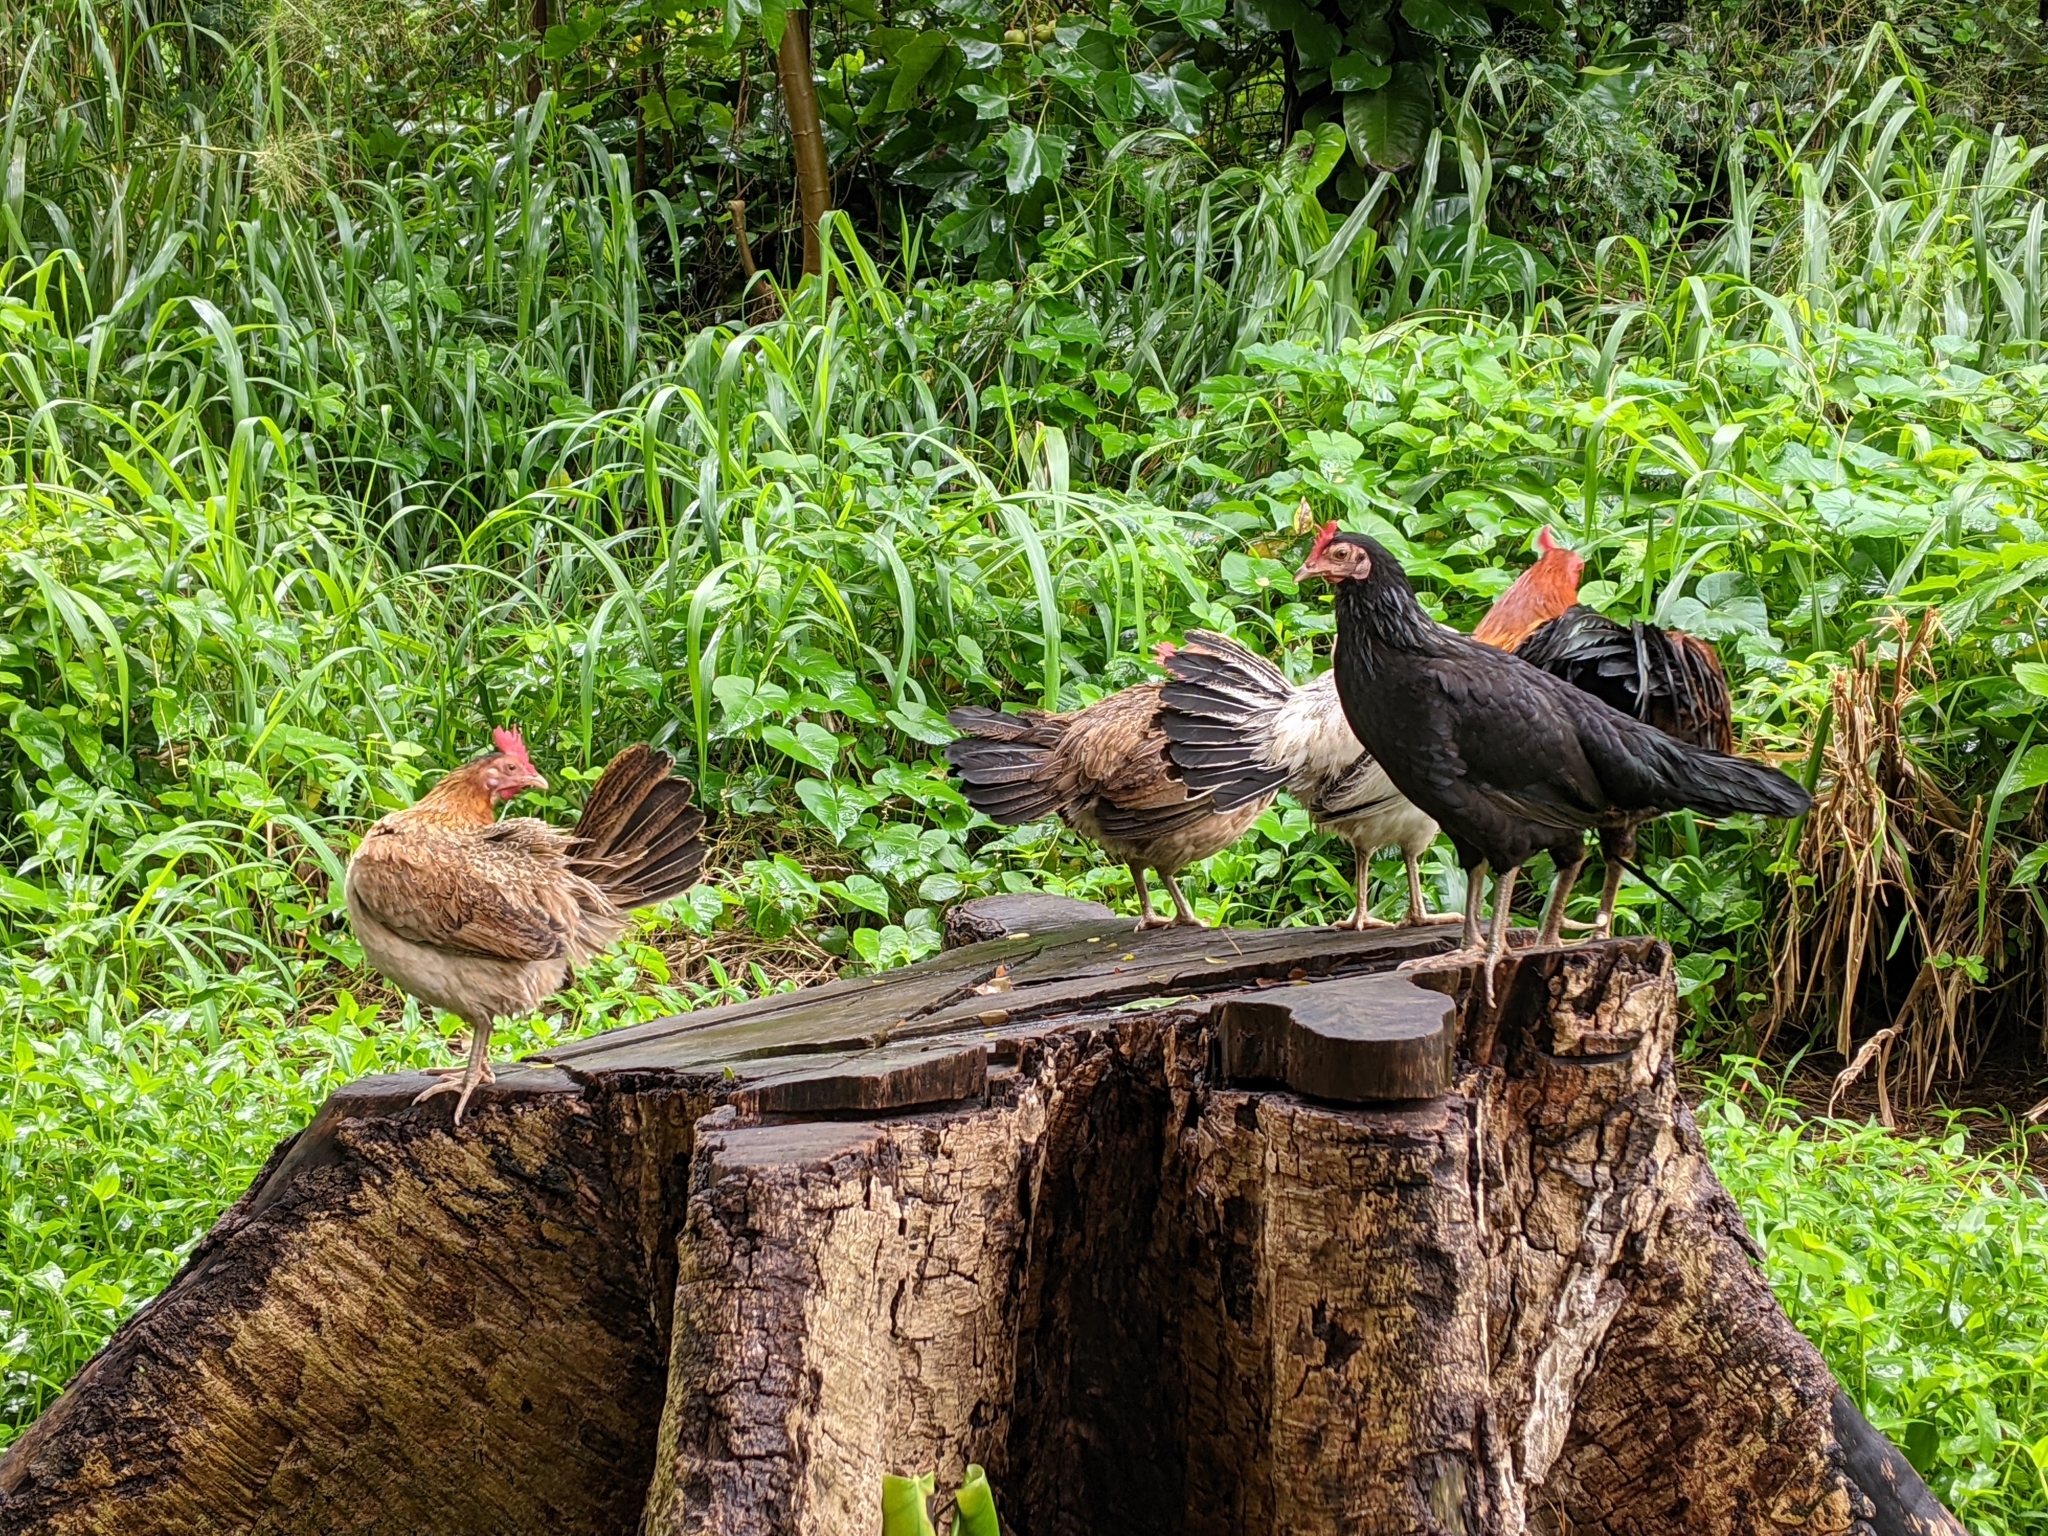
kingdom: Animalia
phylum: Chordata
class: Aves
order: Galliformes
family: Phasianidae
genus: Gallus
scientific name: Gallus gallus
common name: Red junglefowl
